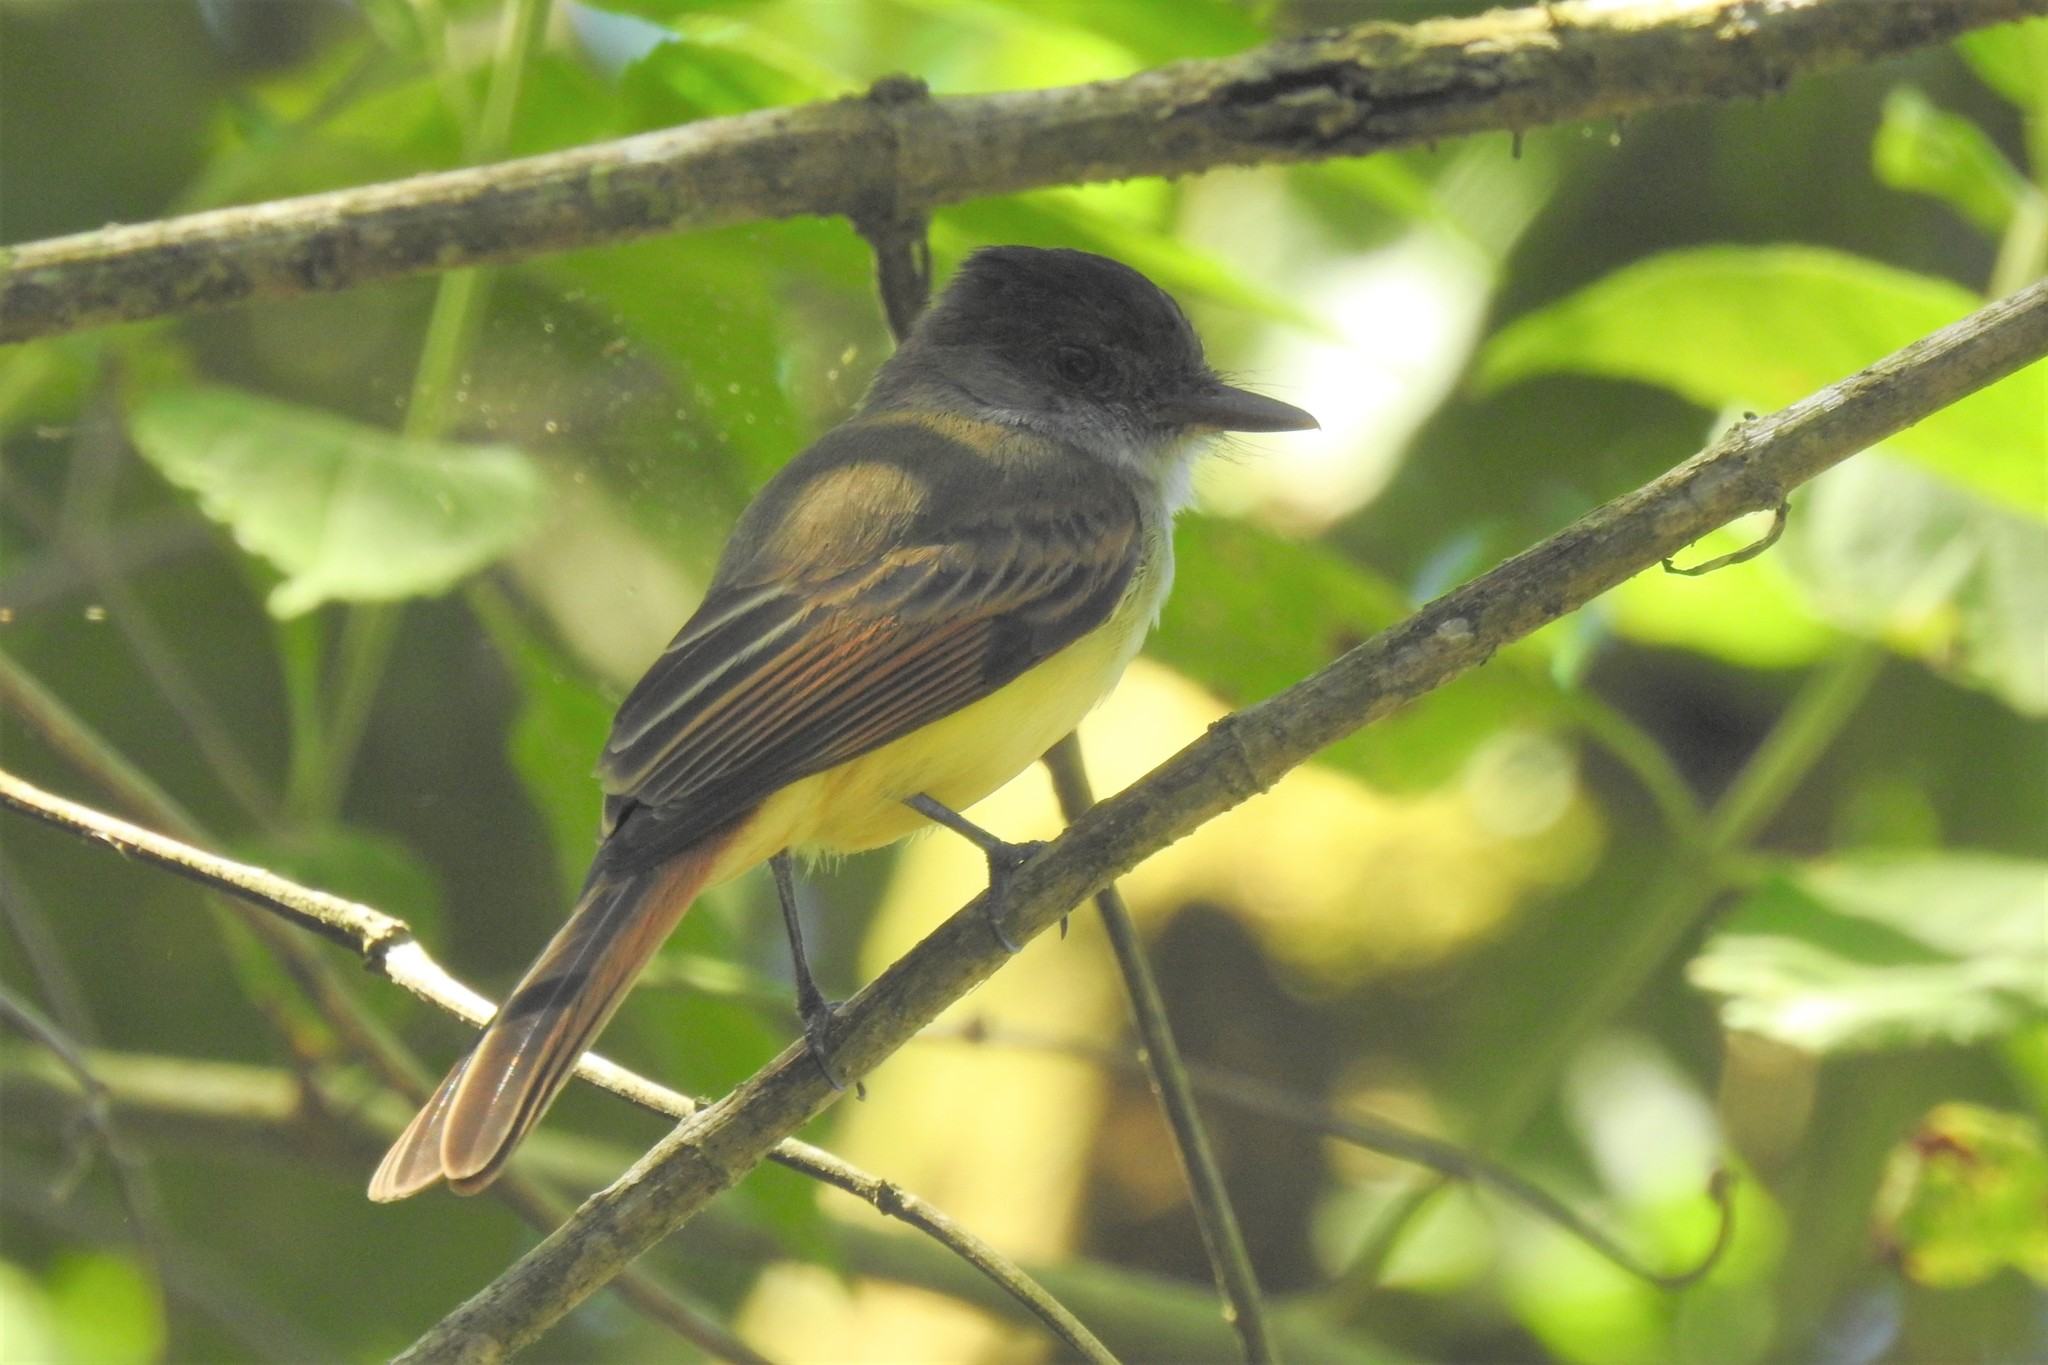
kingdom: Animalia
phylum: Chordata
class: Aves
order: Passeriformes
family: Tyrannidae
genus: Myiarchus
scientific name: Myiarchus tuberculifer
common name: Dusky-capped flycatcher
